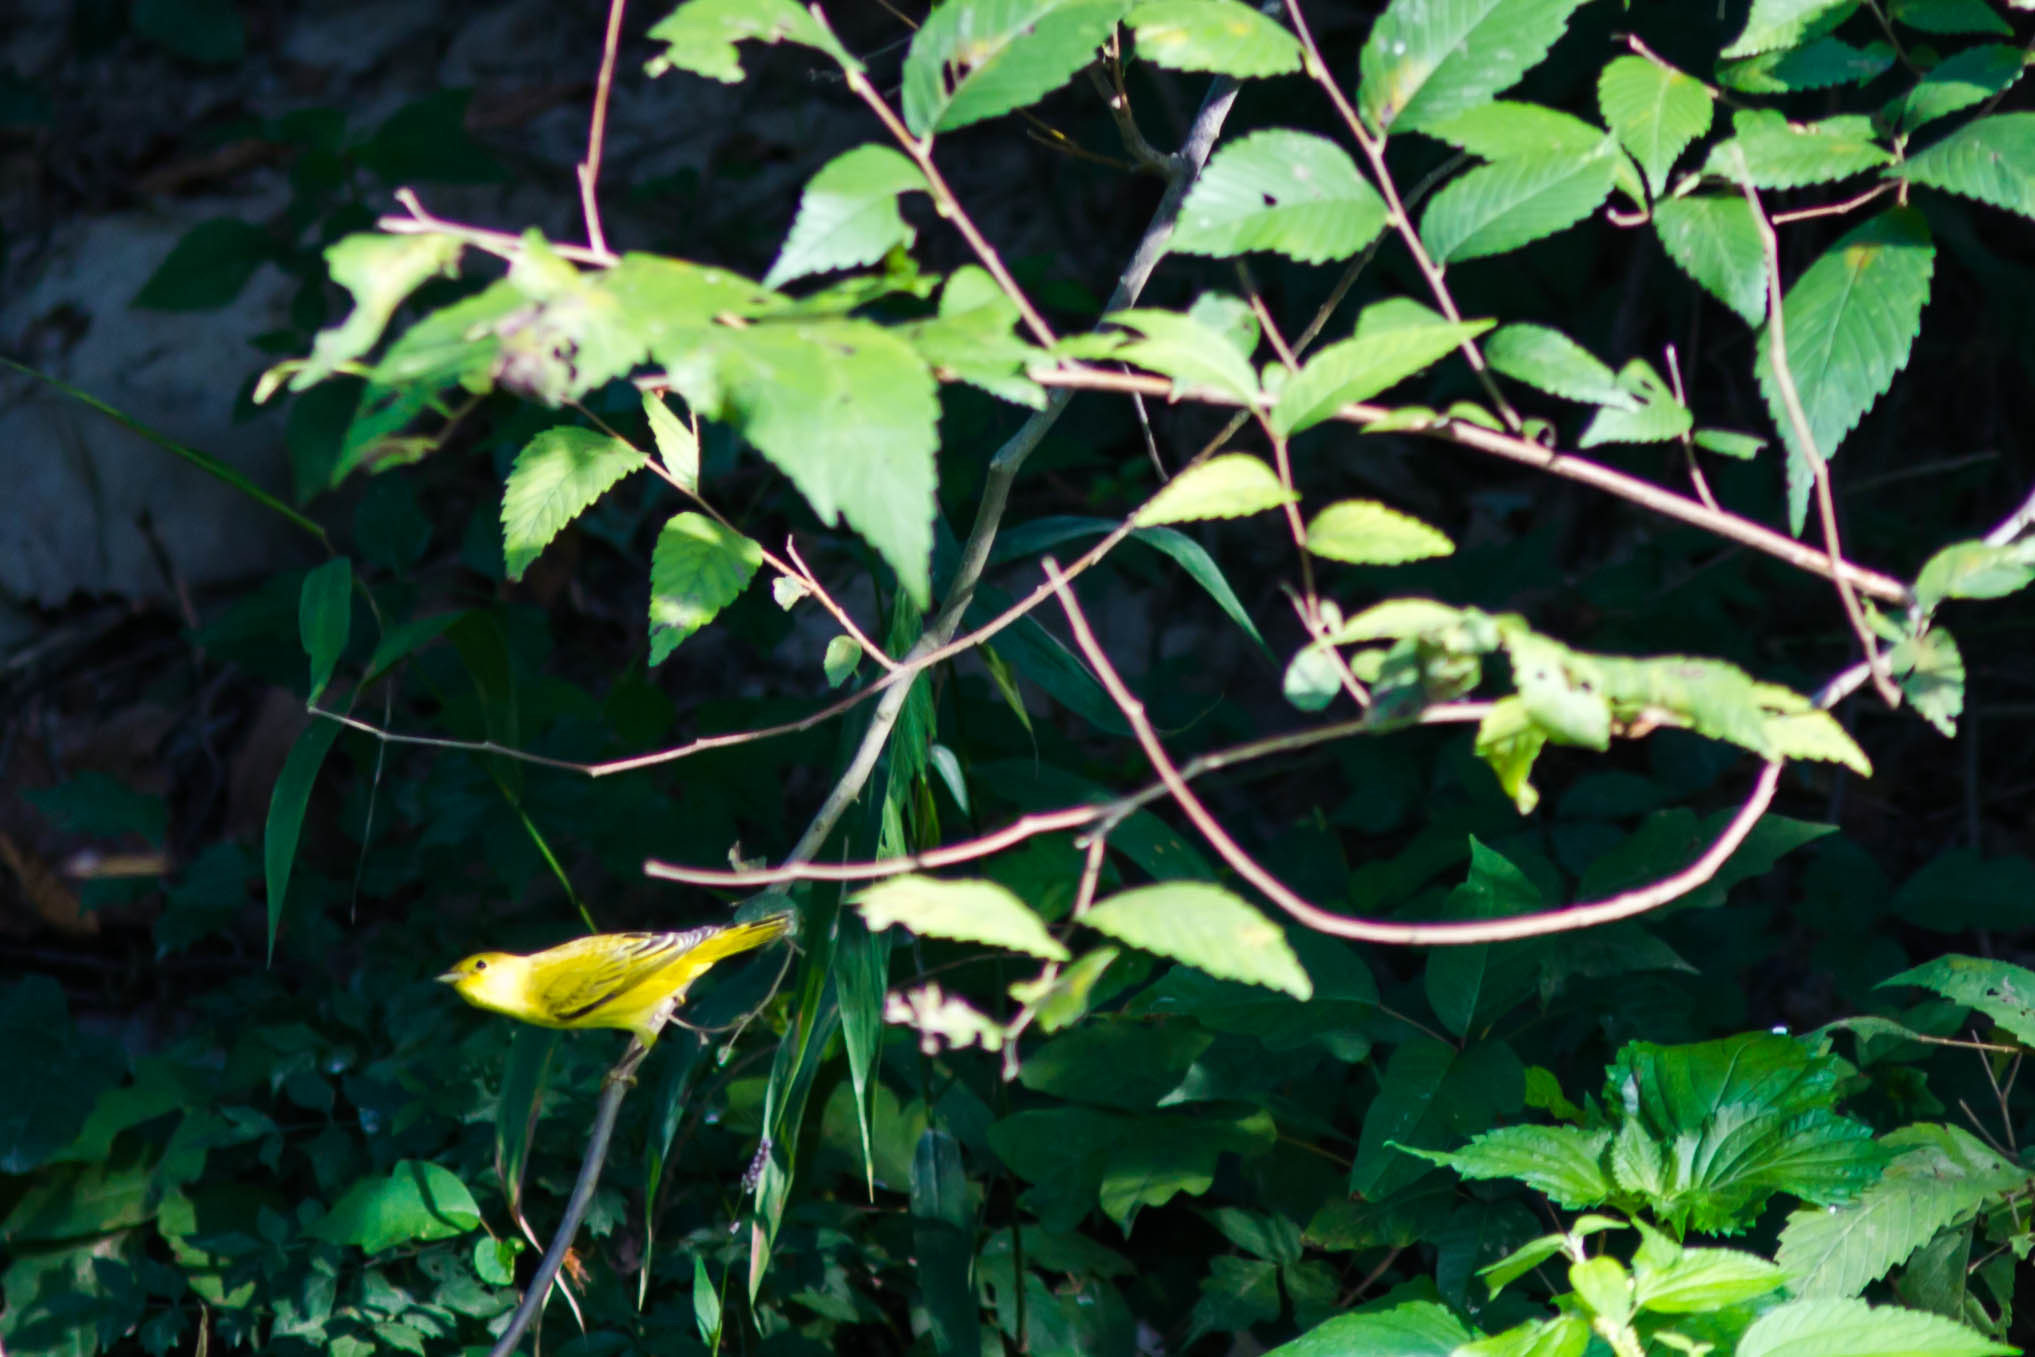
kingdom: Animalia
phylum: Chordata
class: Aves
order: Passeriformes
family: Parulidae
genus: Setophaga
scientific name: Setophaga petechia
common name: Yellow warbler
